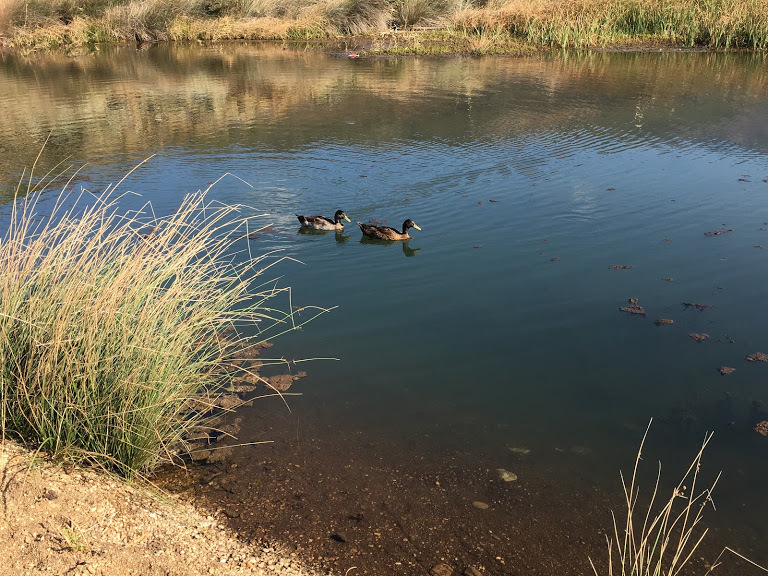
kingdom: Animalia
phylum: Chordata
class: Aves
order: Anseriformes
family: Anatidae
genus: Anas
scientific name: Anas platyrhynchos
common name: Mallard
